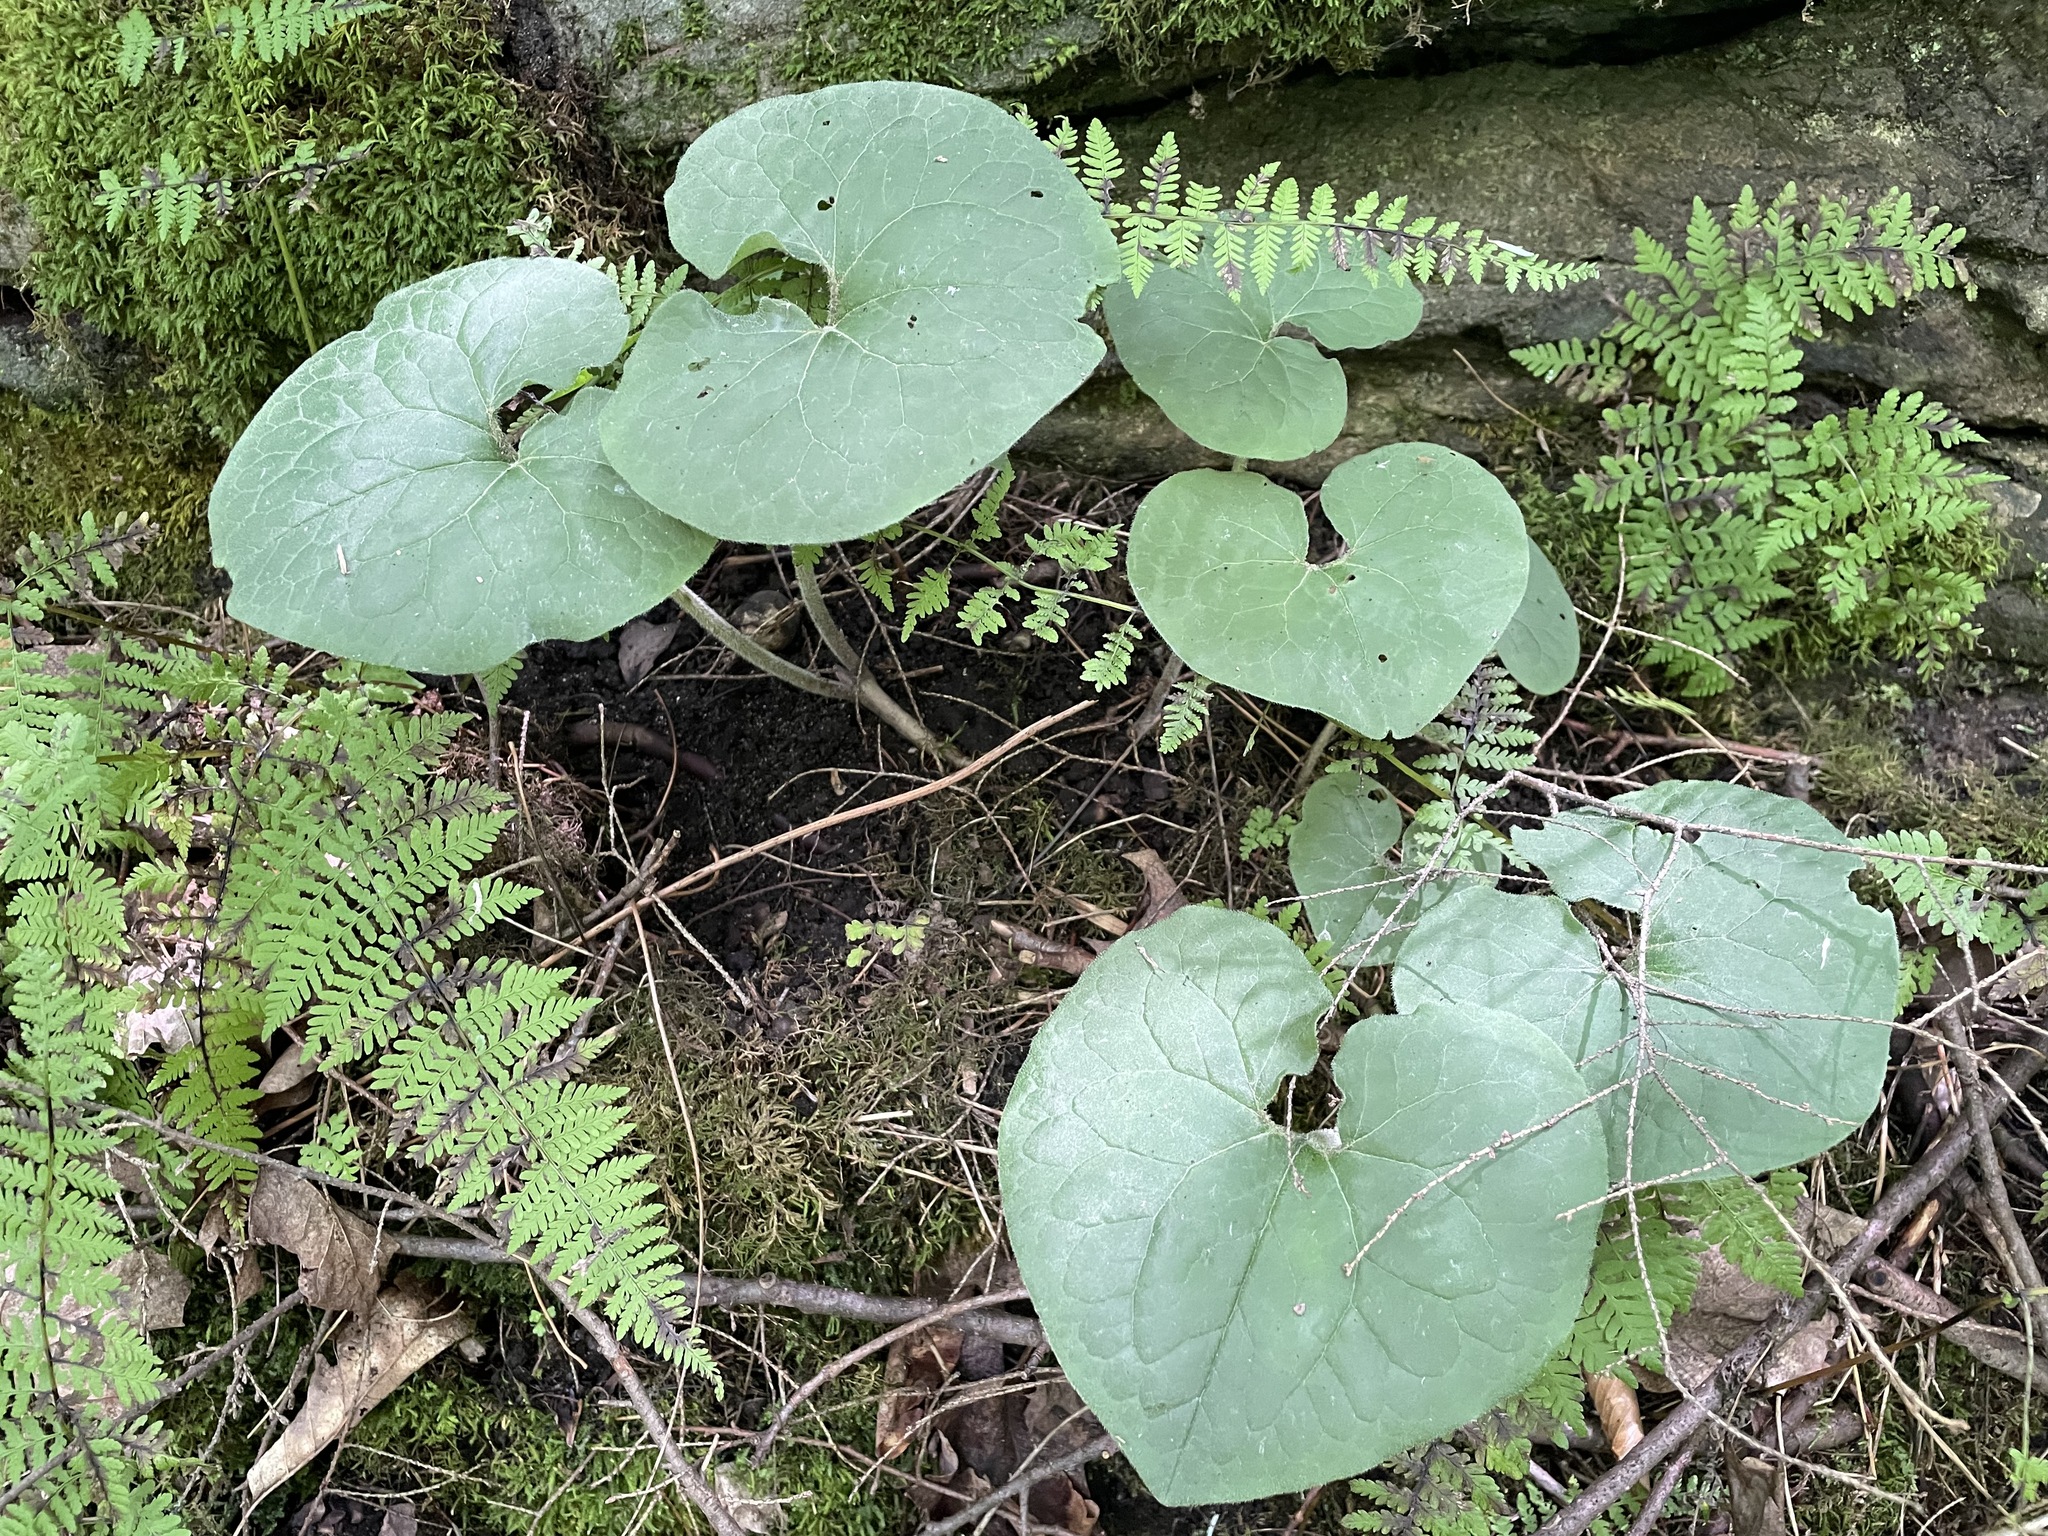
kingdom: Plantae
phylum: Tracheophyta
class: Magnoliopsida
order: Piperales
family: Aristolochiaceae
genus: Asarum
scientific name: Asarum canadense
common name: Wild ginger
